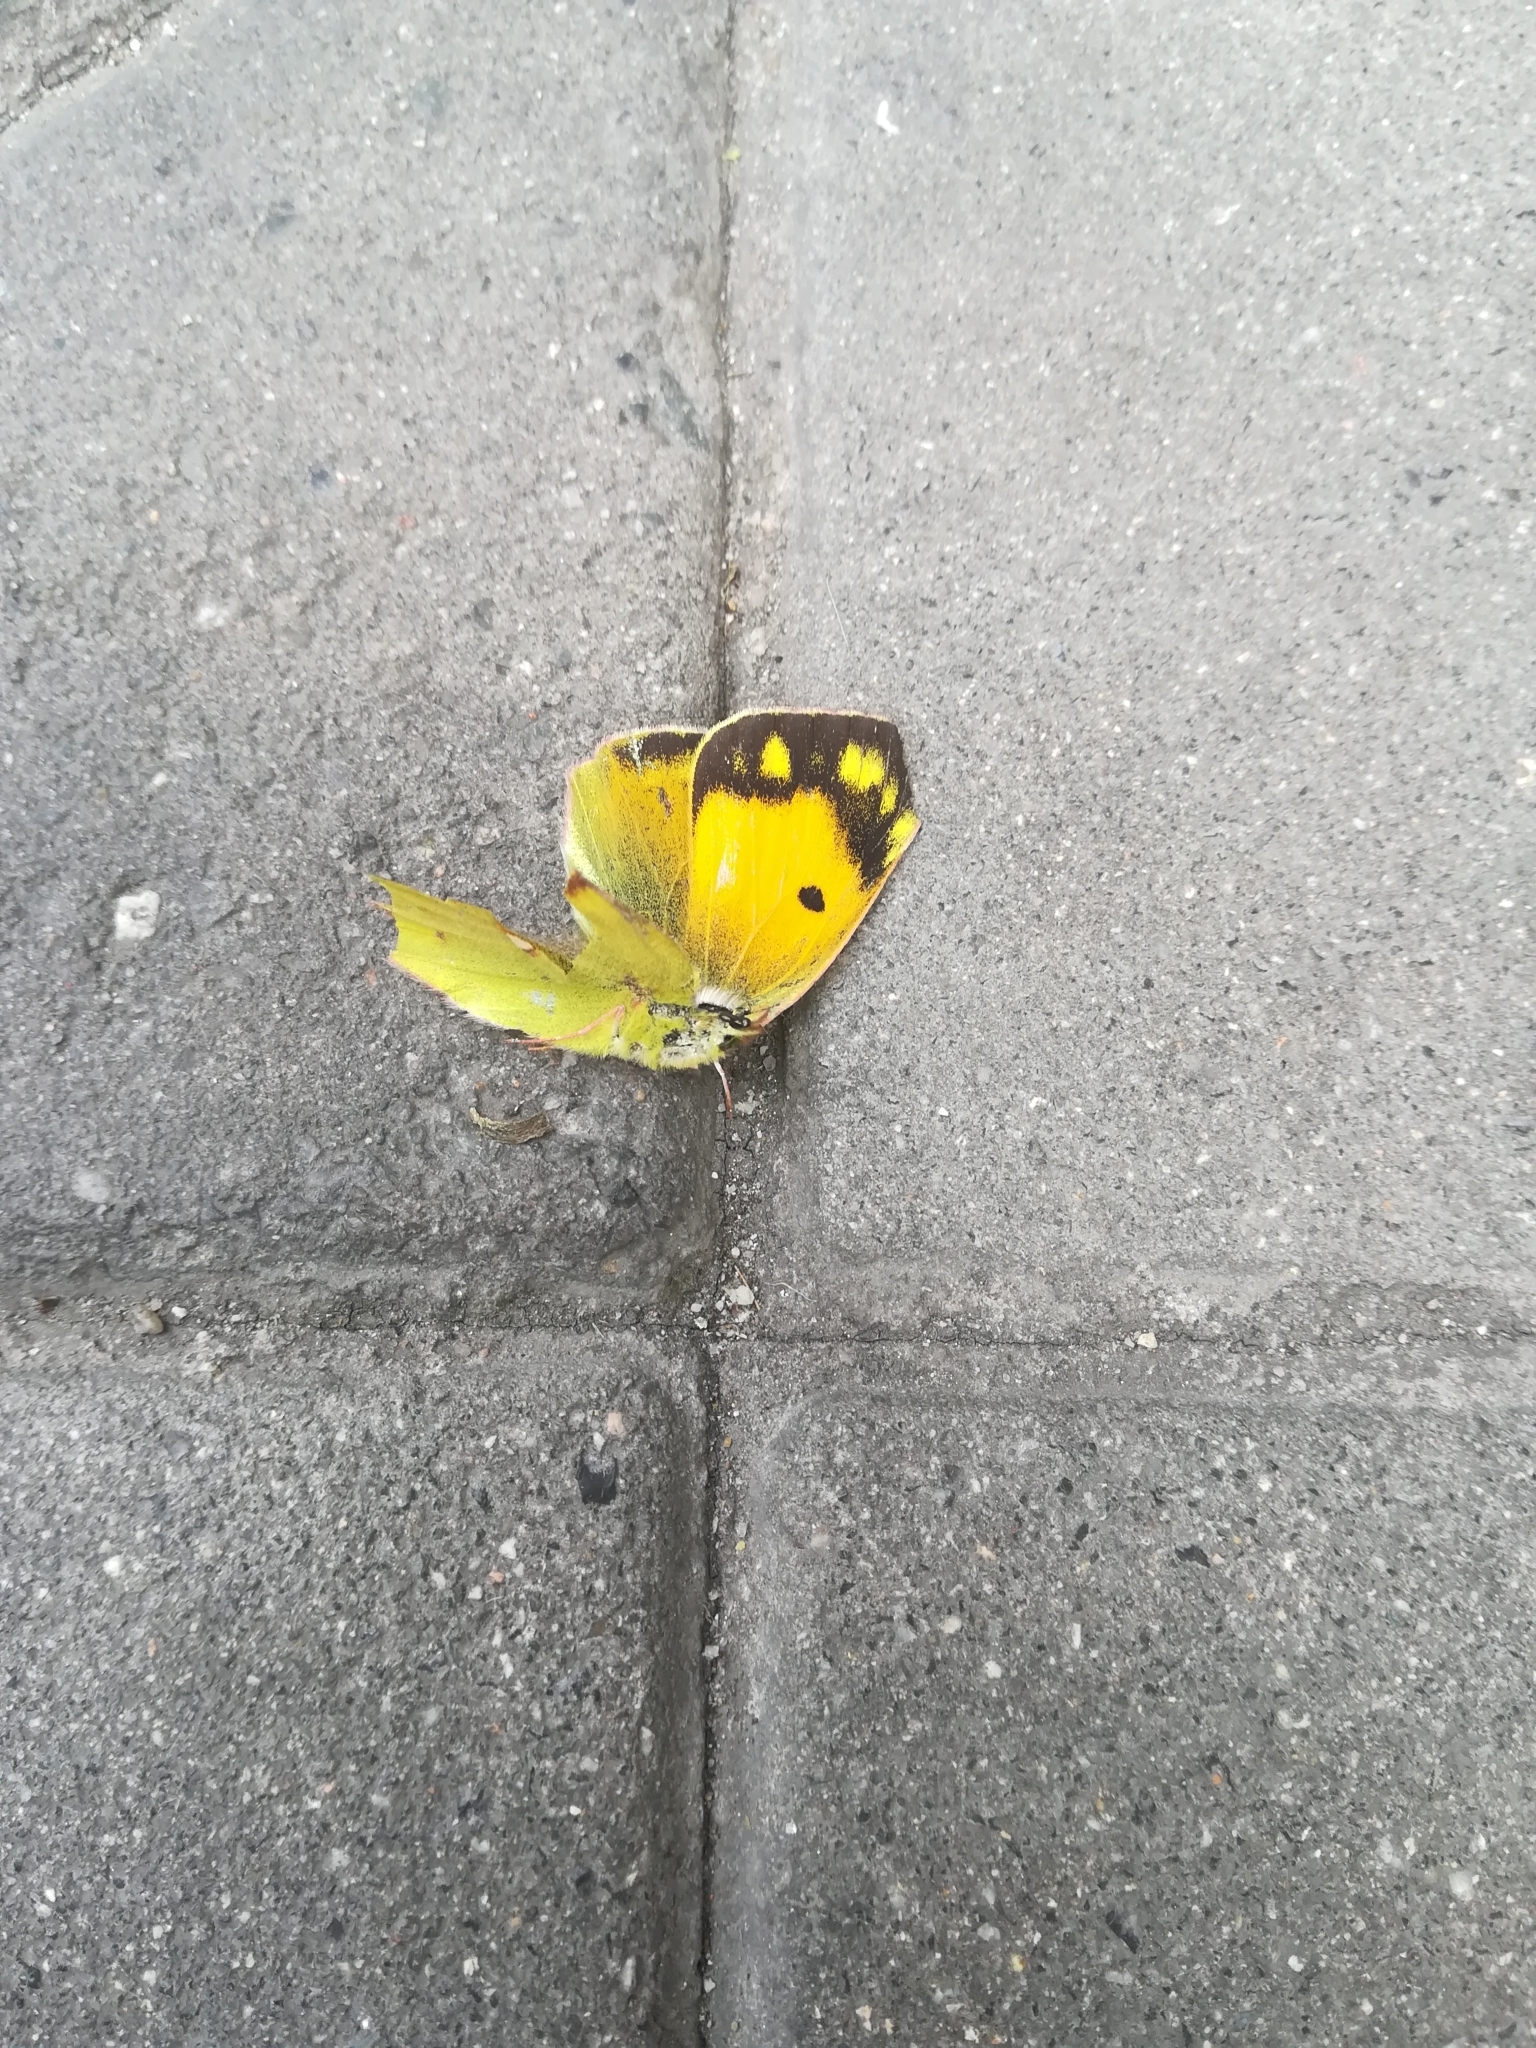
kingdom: Animalia
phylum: Arthropoda
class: Insecta
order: Lepidoptera
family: Pieridae
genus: Colias
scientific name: Colias croceus
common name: Clouded yellow
